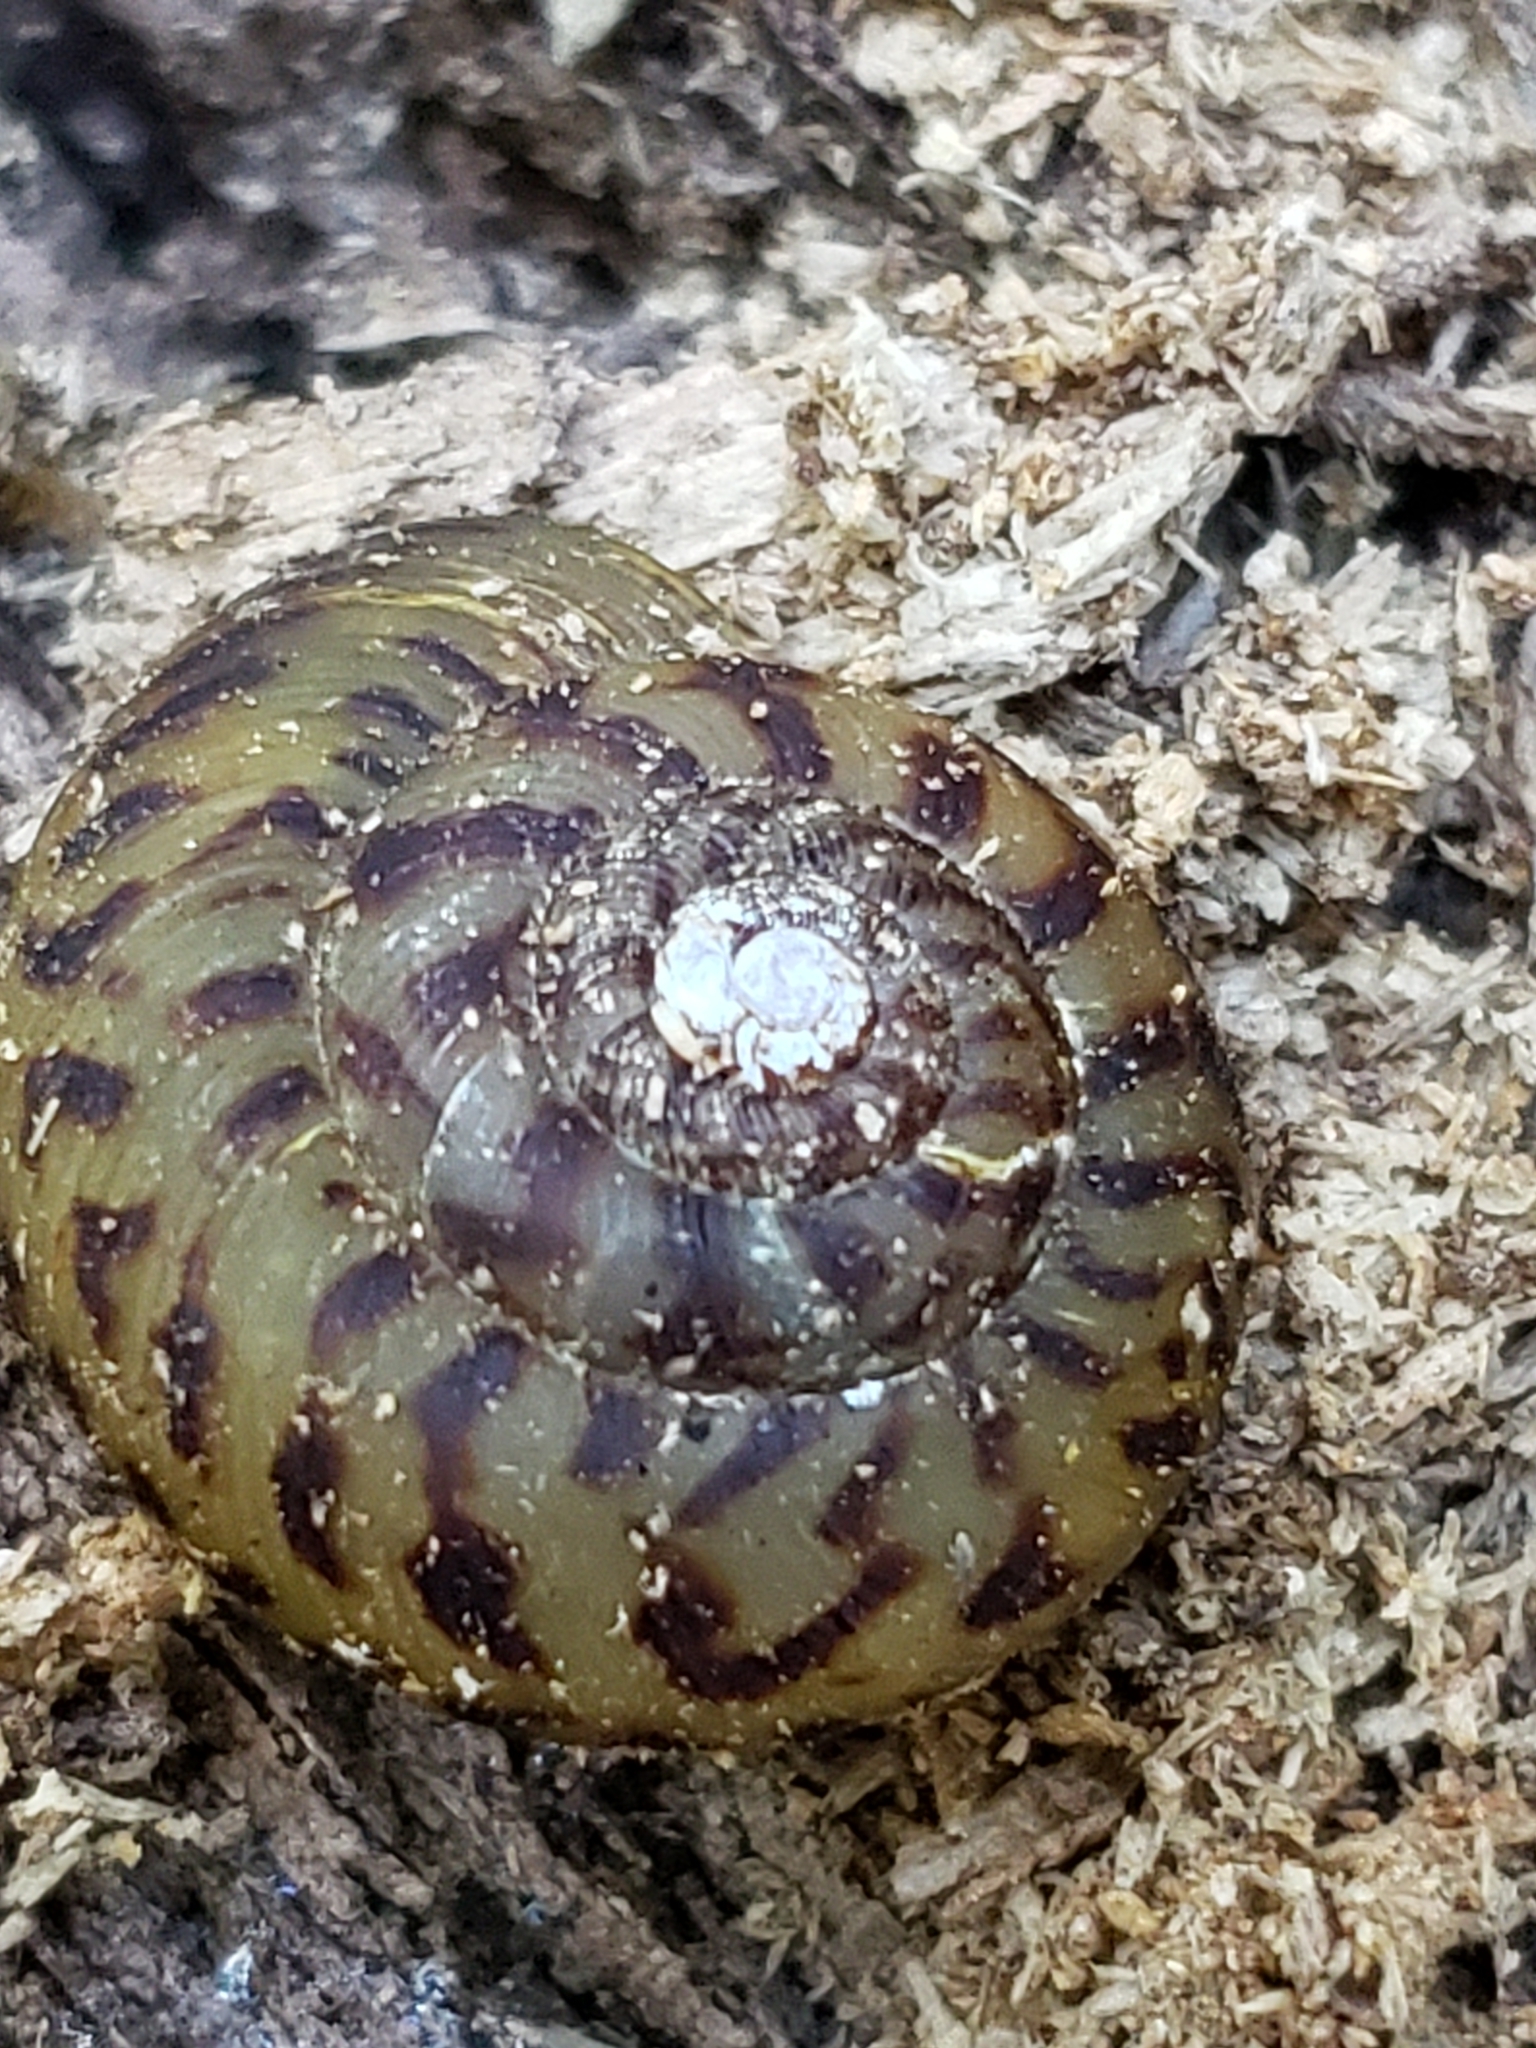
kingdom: Animalia
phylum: Mollusca
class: Gastropoda
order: Stylommatophora
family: Discidae
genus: Anguispira
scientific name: Anguispira fergusoni
